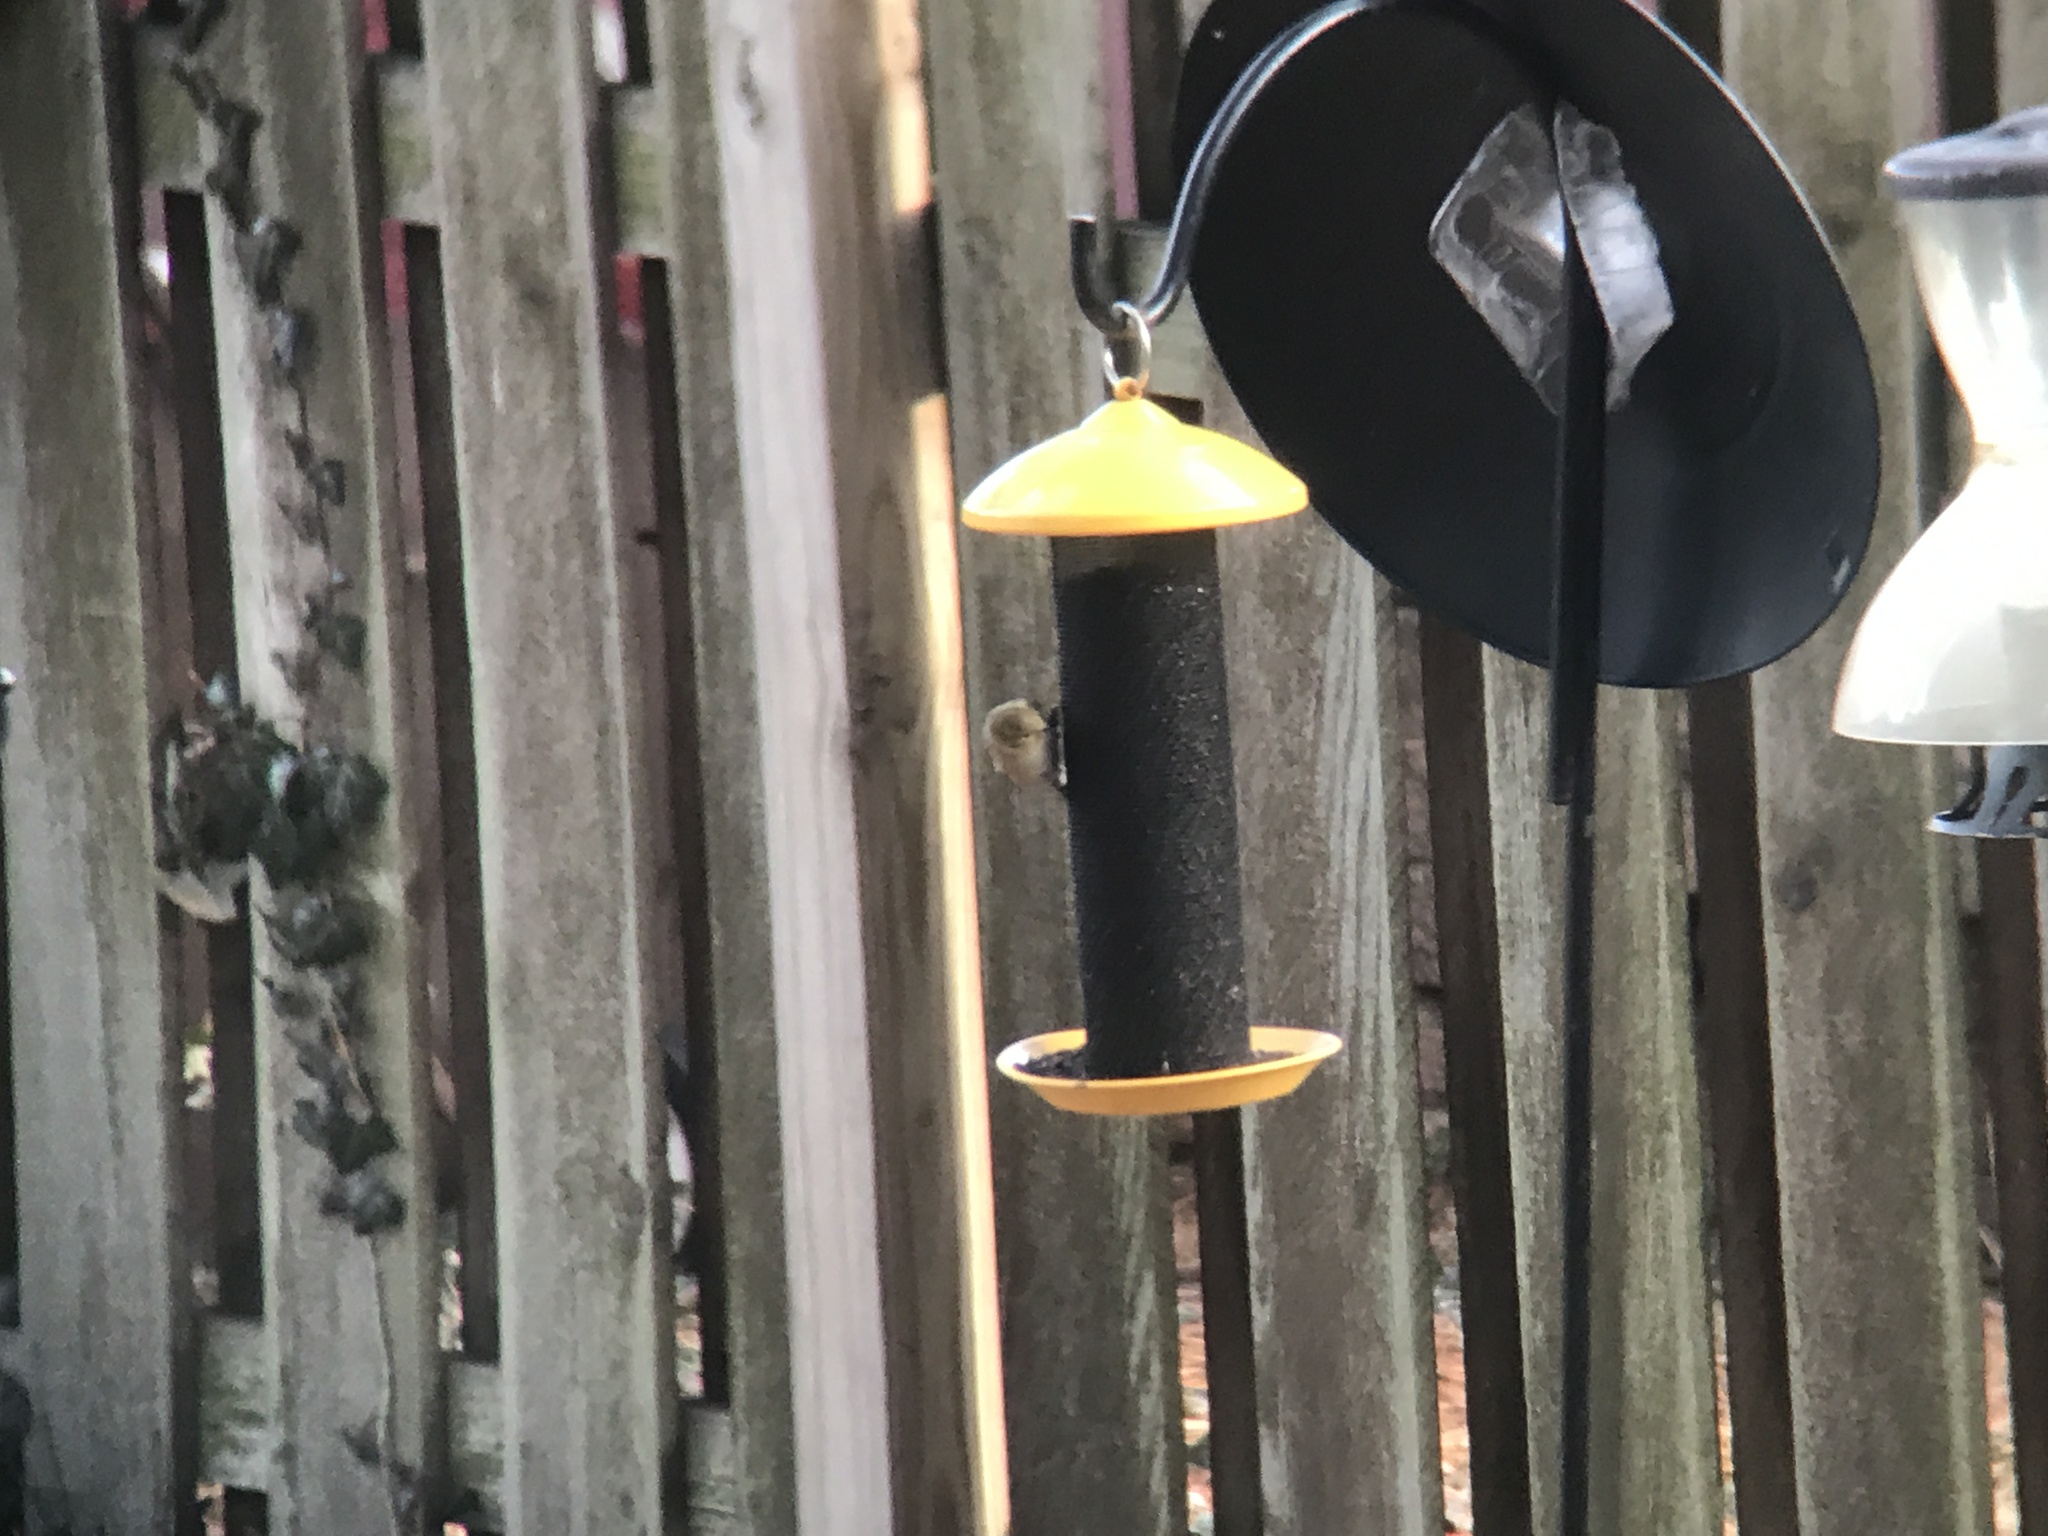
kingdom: Animalia
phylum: Chordata
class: Aves
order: Passeriformes
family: Fringillidae
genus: Spinus
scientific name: Spinus tristis
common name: American goldfinch
